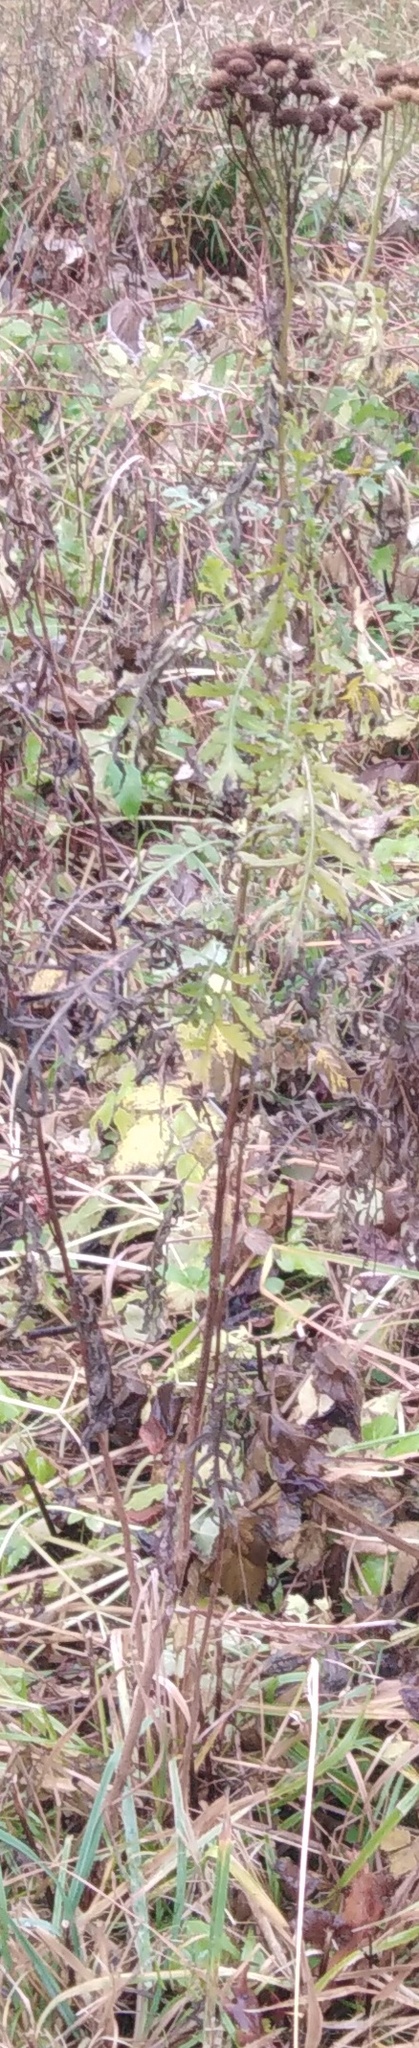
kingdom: Plantae
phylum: Tracheophyta
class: Magnoliopsida
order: Asterales
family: Asteraceae
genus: Tanacetum
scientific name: Tanacetum vulgare
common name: Common tansy
